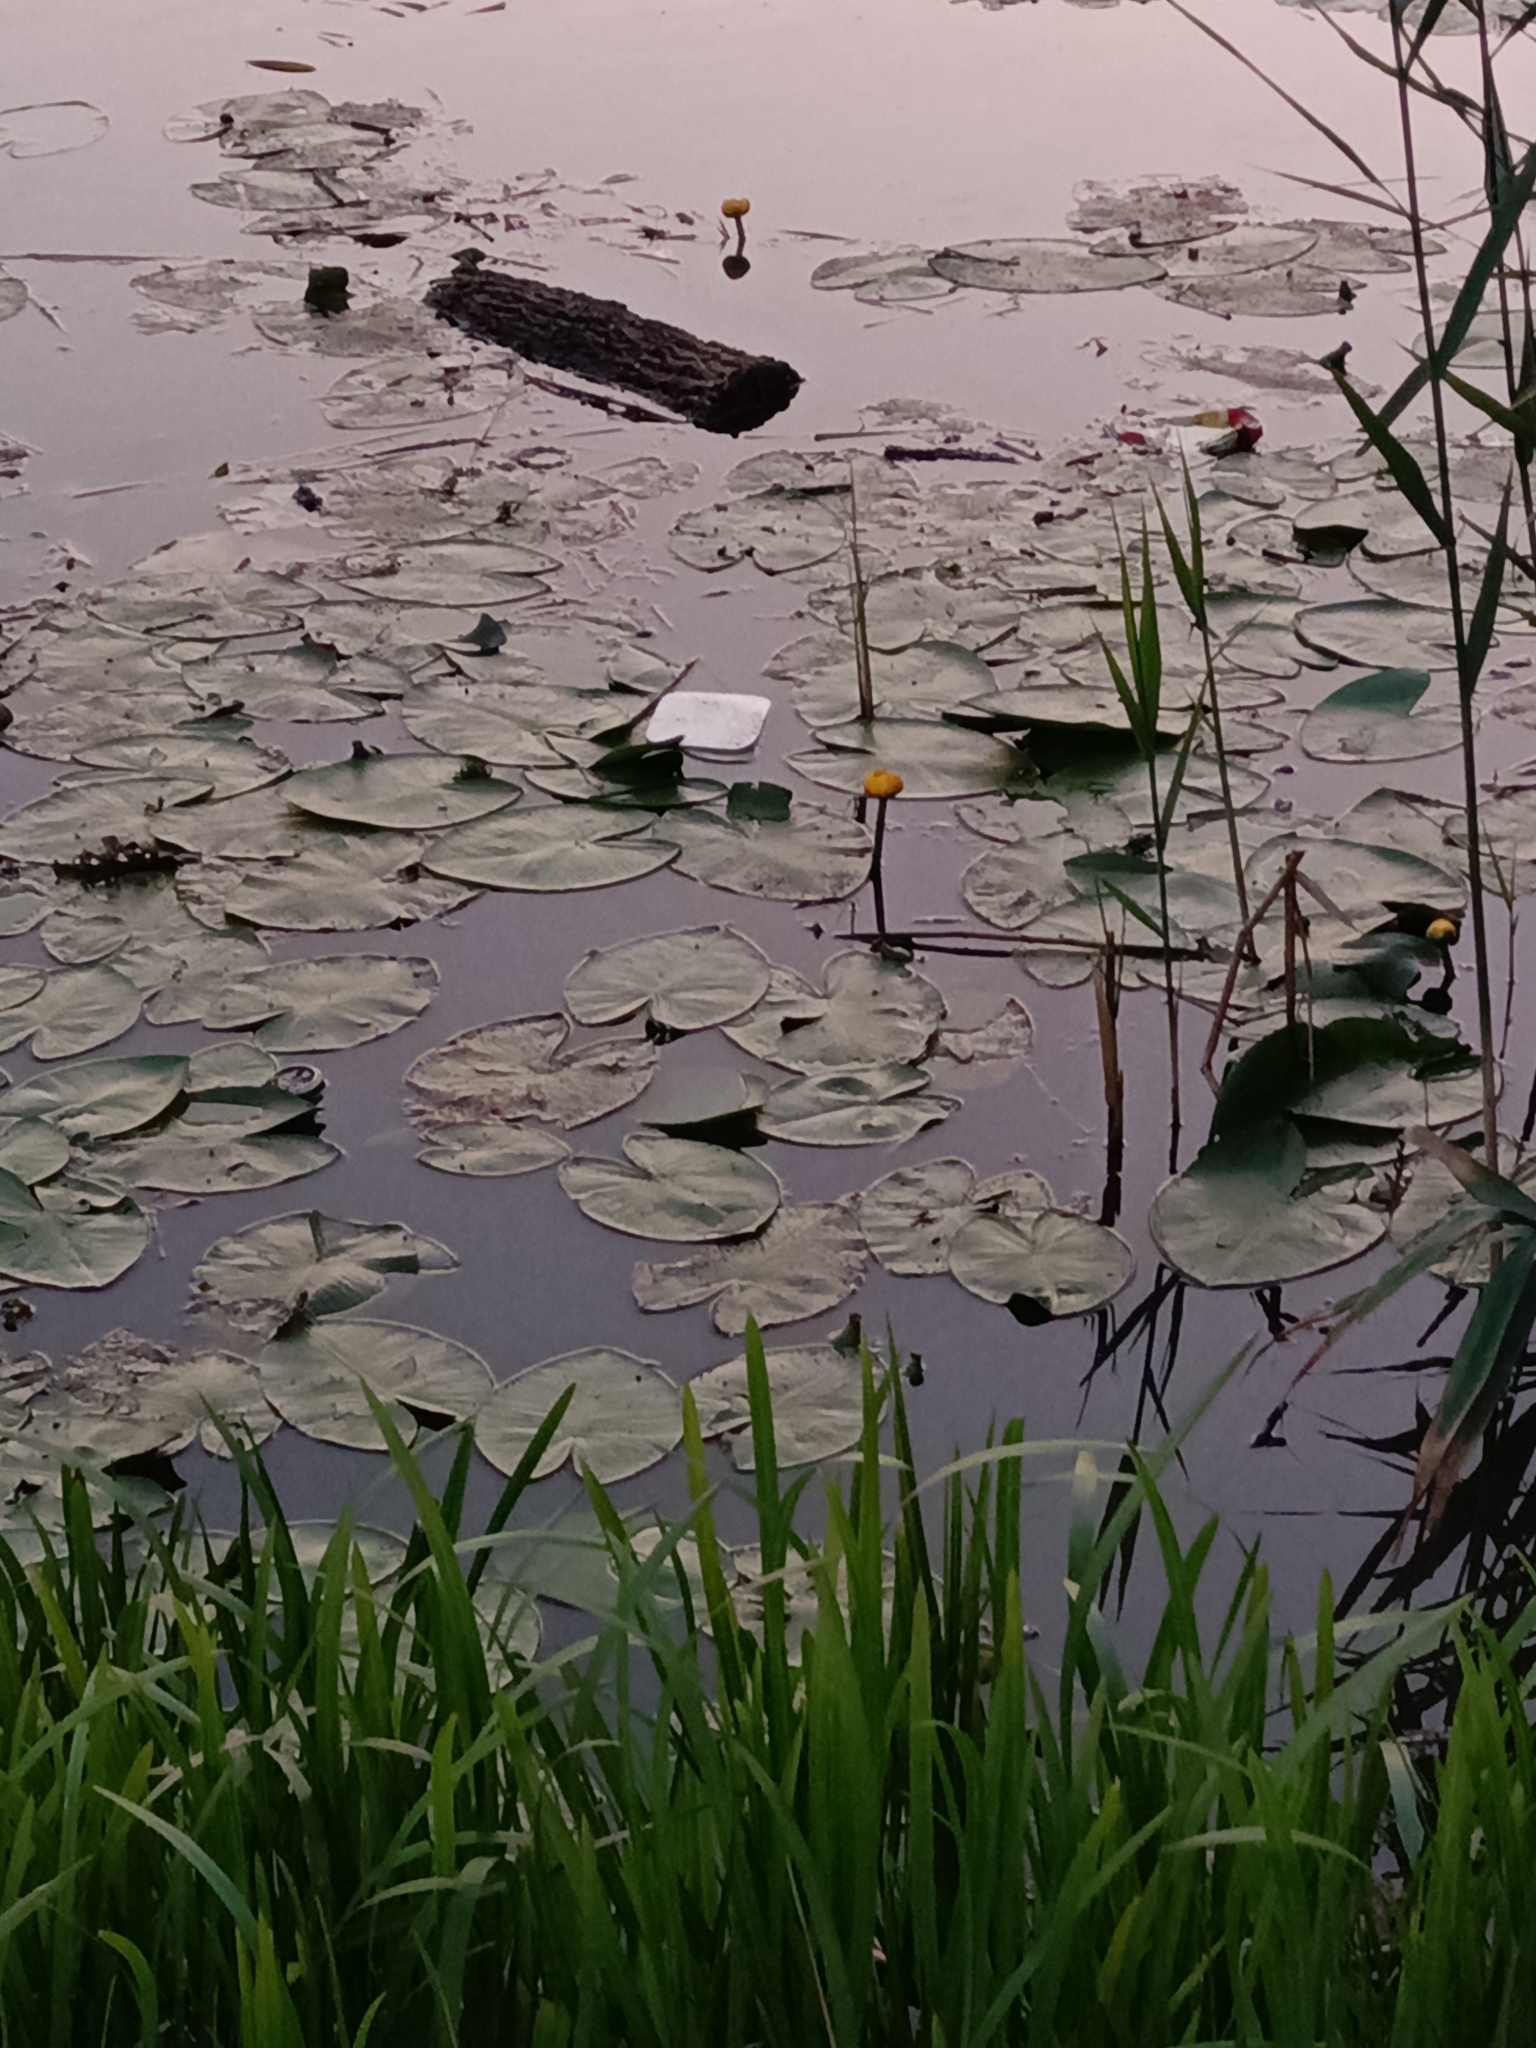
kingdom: Plantae
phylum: Tracheophyta
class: Magnoliopsida
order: Nymphaeales
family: Nymphaeaceae
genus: Nuphar
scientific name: Nuphar lutea
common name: Yellow water-lily
